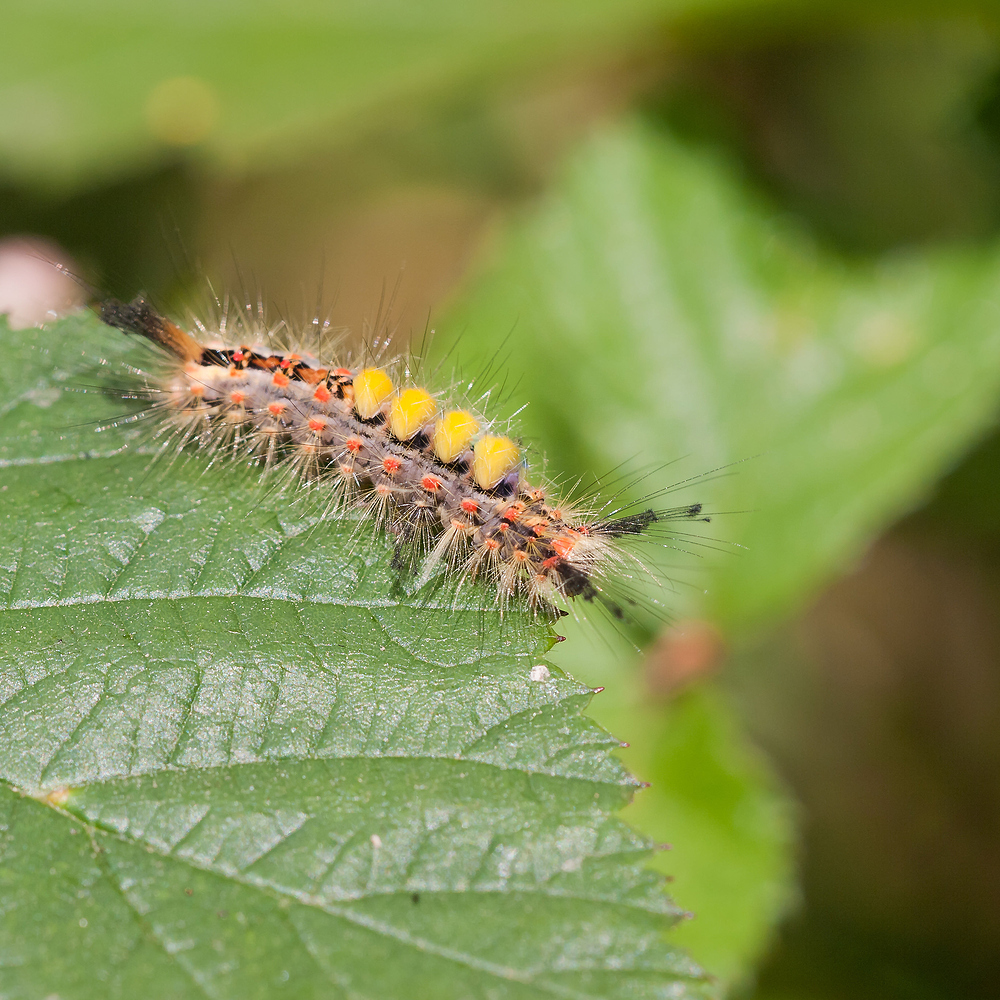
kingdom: Animalia
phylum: Arthropoda
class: Insecta
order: Lepidoptera
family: Erebidae
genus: Orgyia
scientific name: Orgyia antiqua
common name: Vapourer
